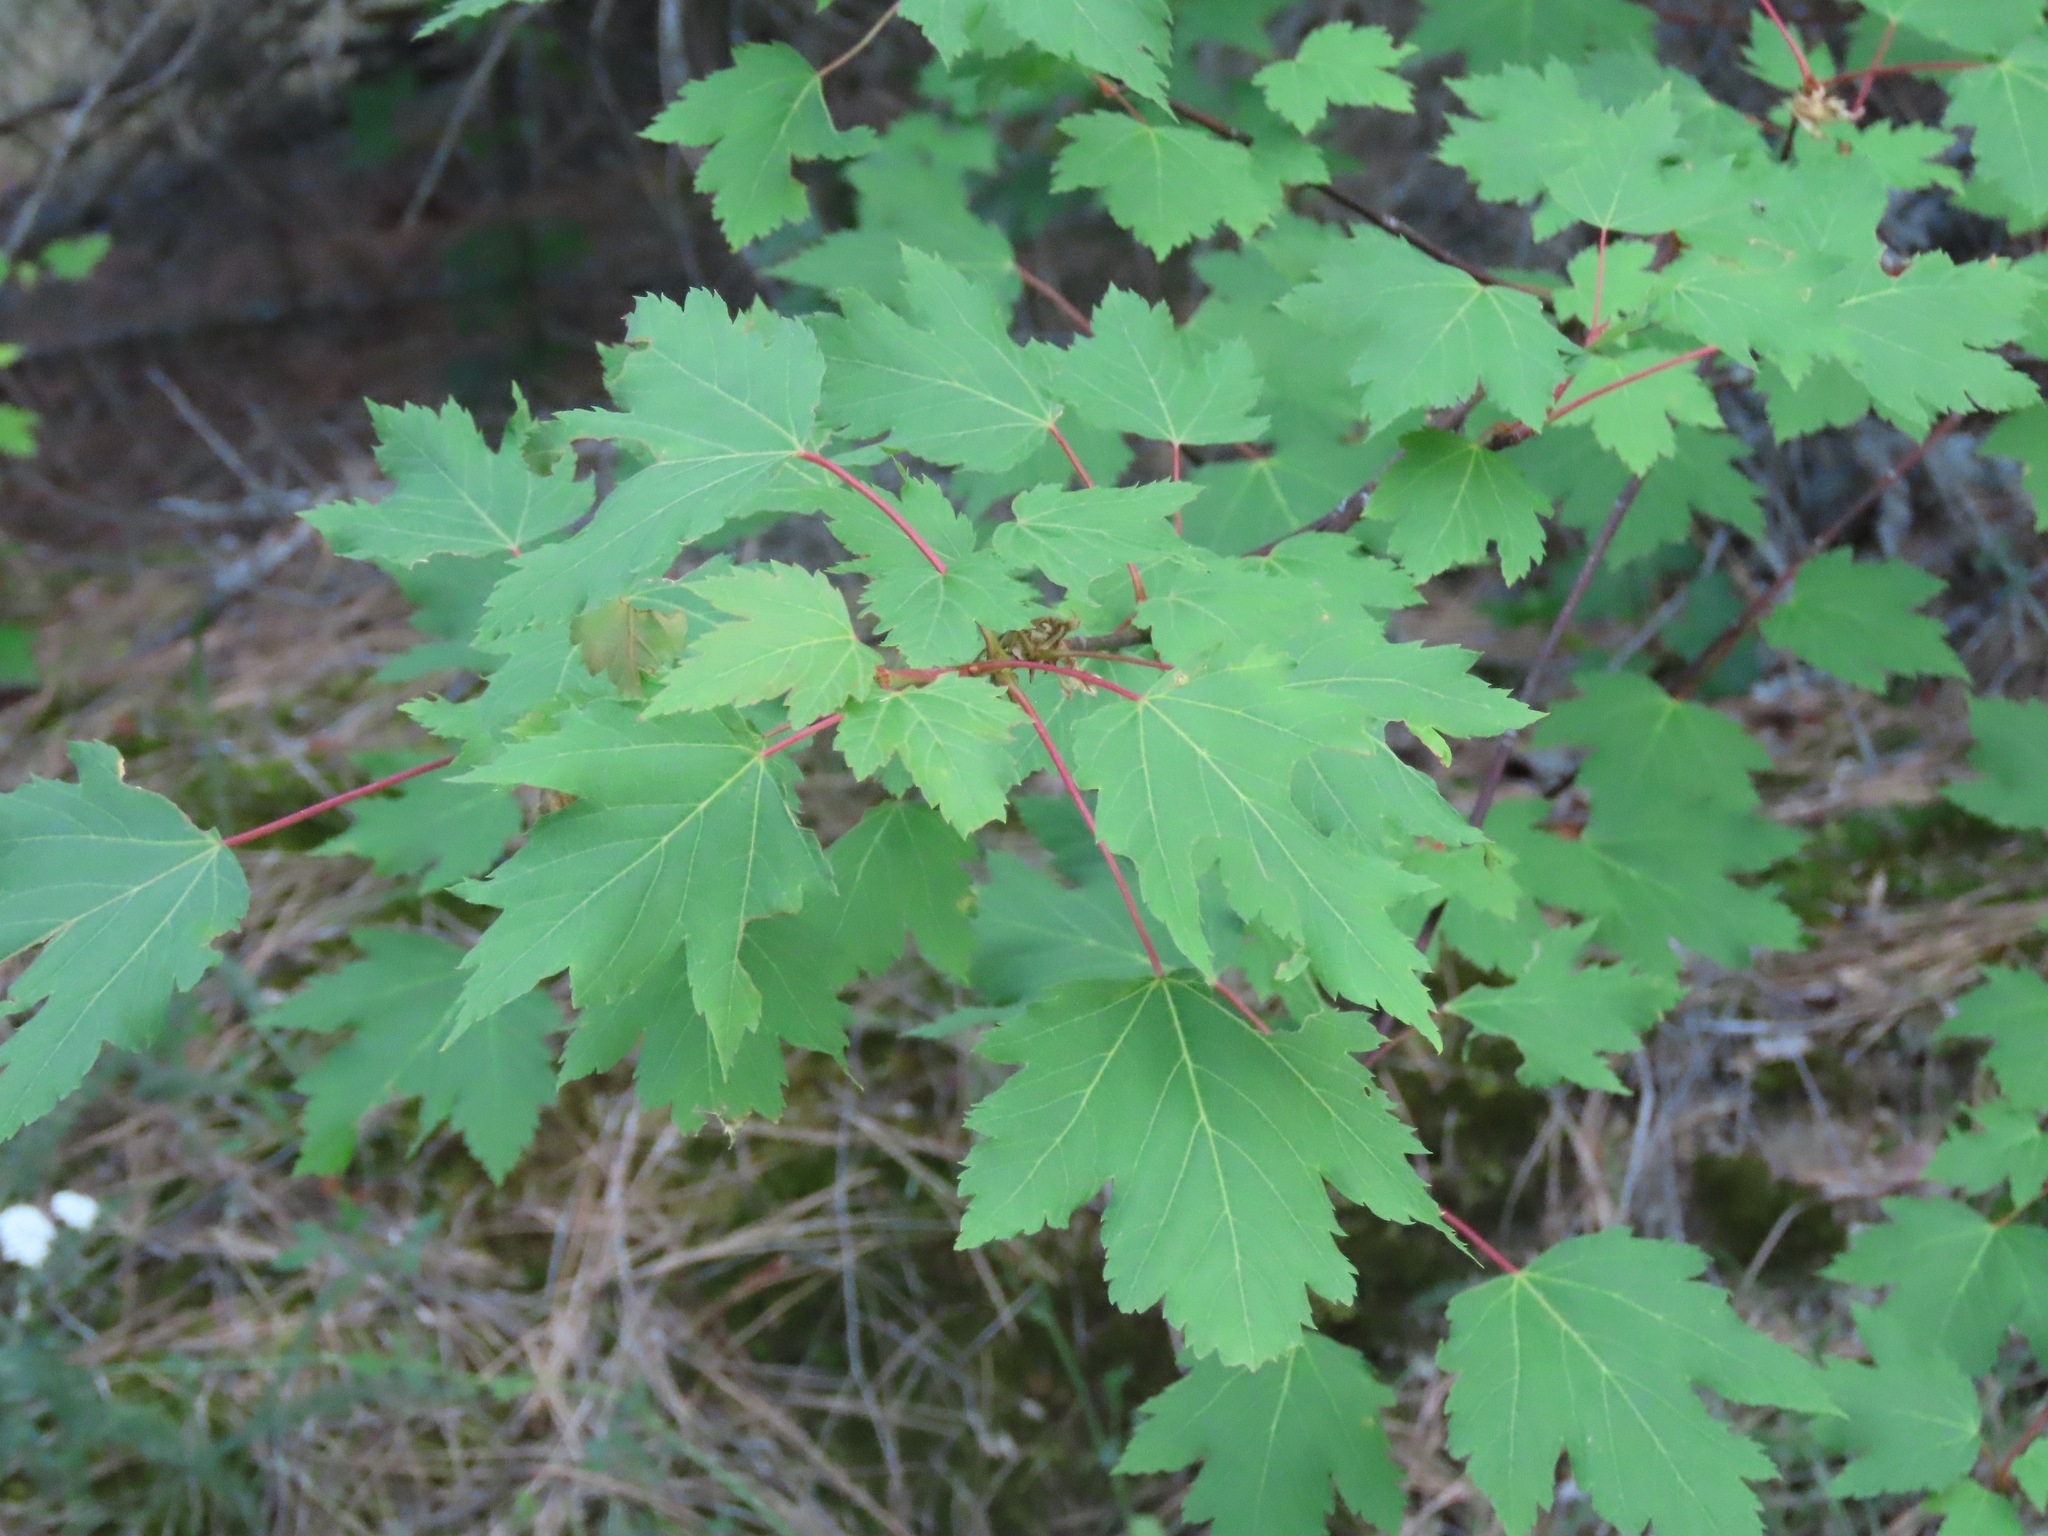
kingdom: Plantae
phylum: Tracheophyta
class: Magnoliopsida
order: Sapindales
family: Sapindaceae
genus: Acer
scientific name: Acer glabrum
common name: Rocky mountain maple
